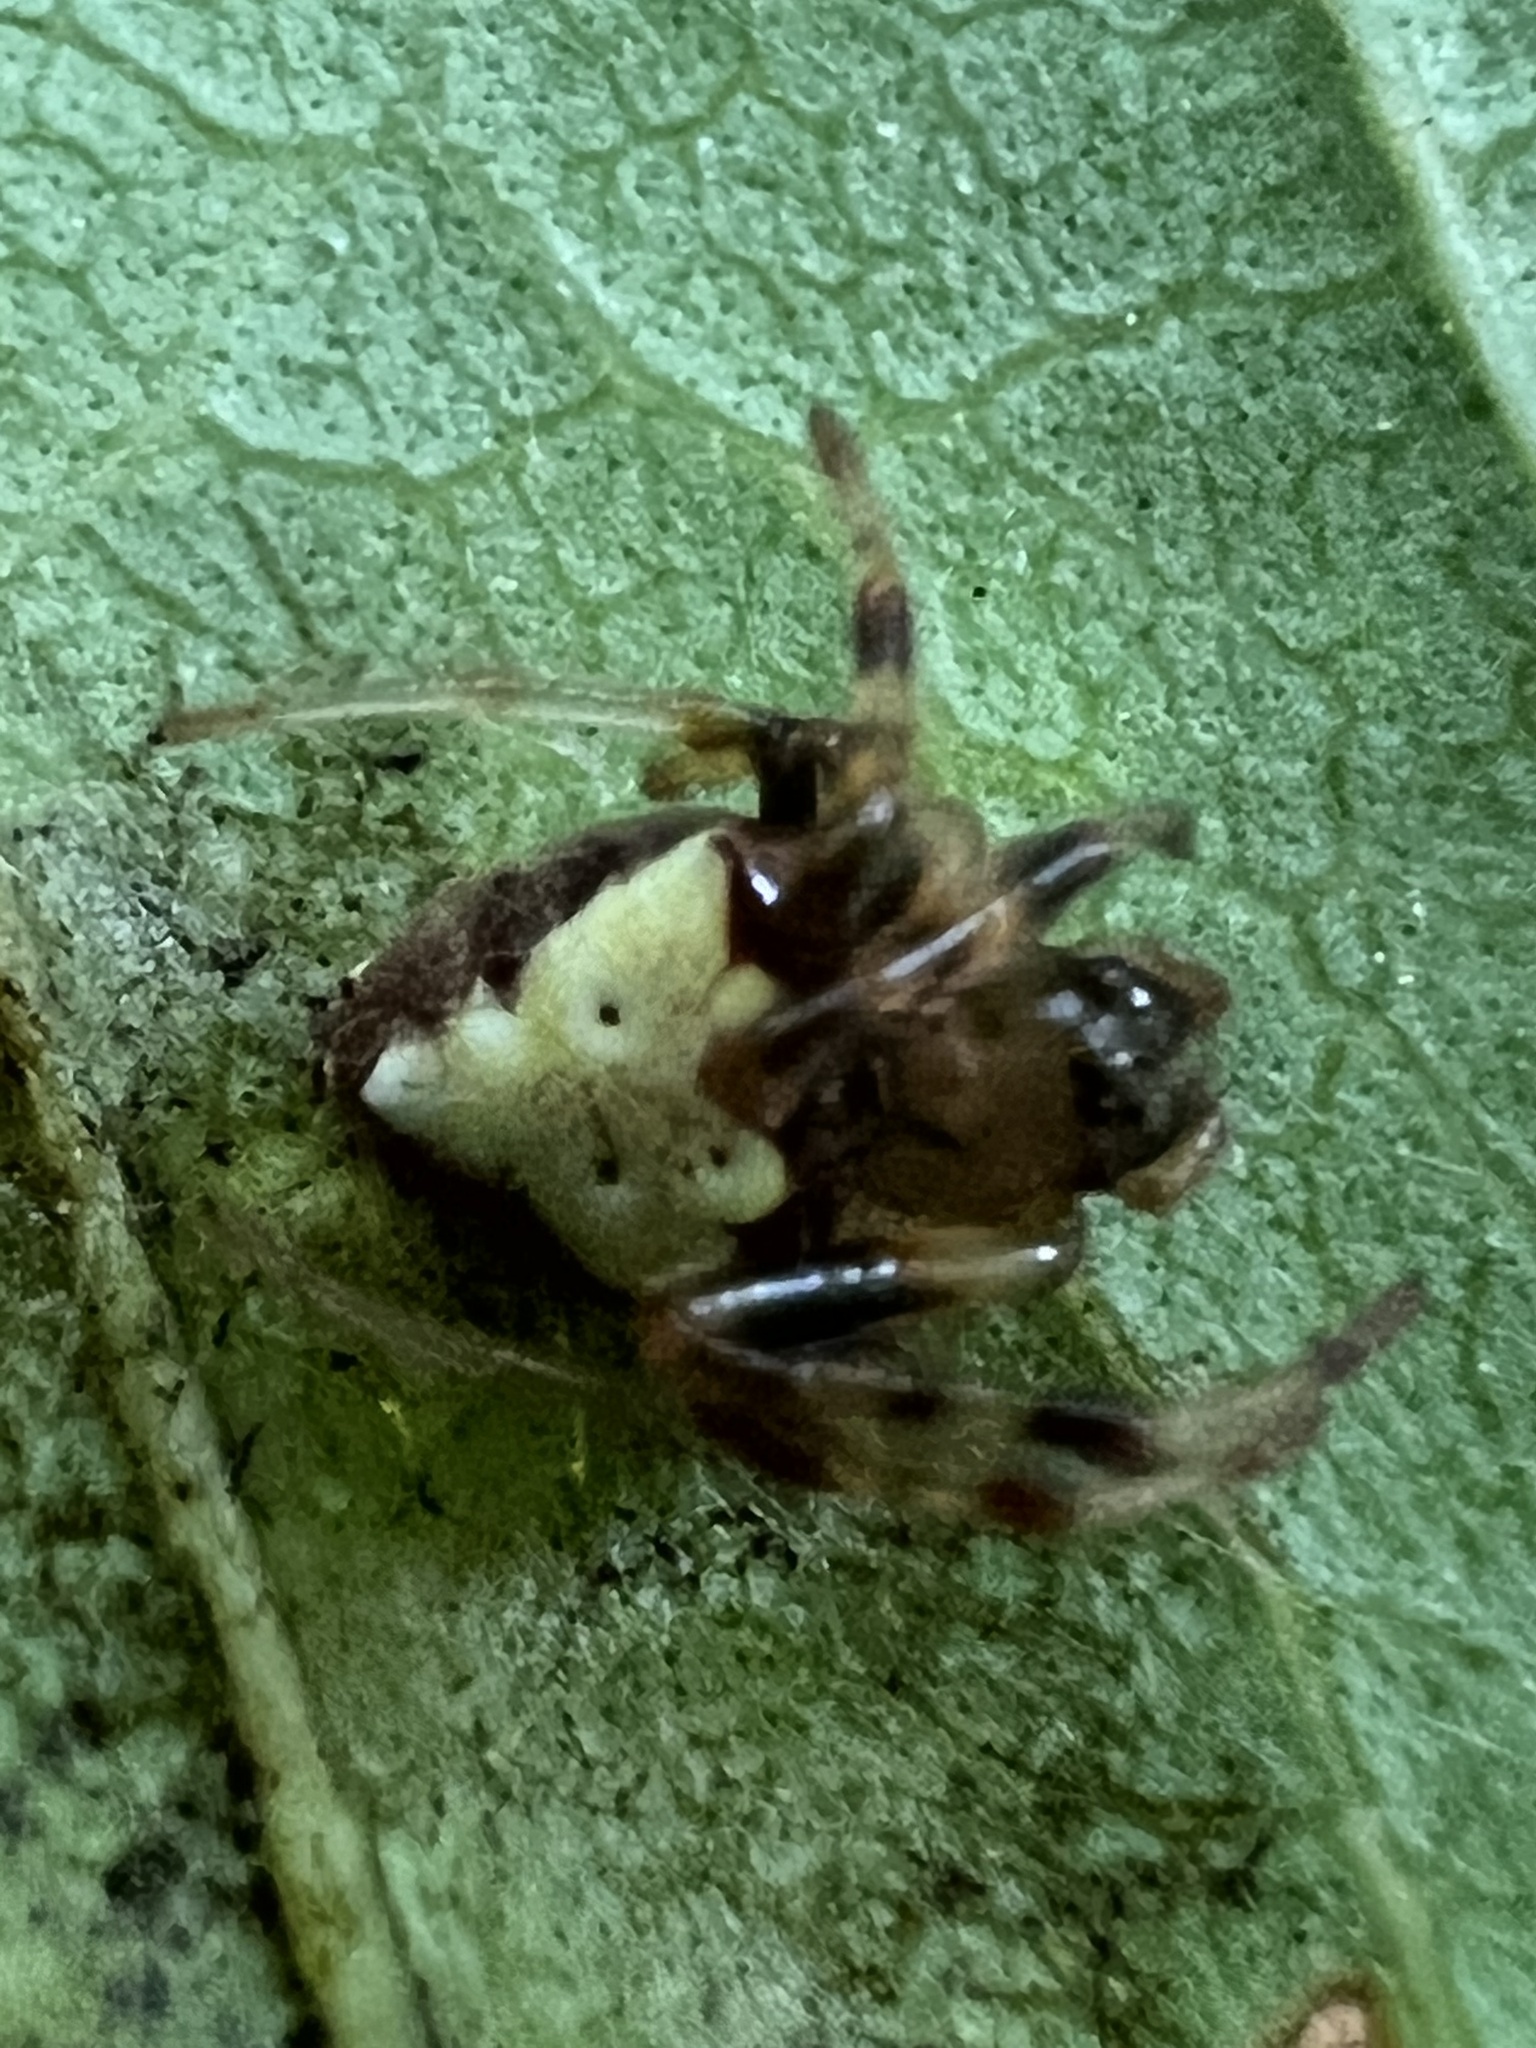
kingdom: Animalia
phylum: Arthropoda
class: Arachnida
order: Araneae
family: Araneidae
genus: Verrucosa
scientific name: Verrucosa arenata
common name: Orb weavers
